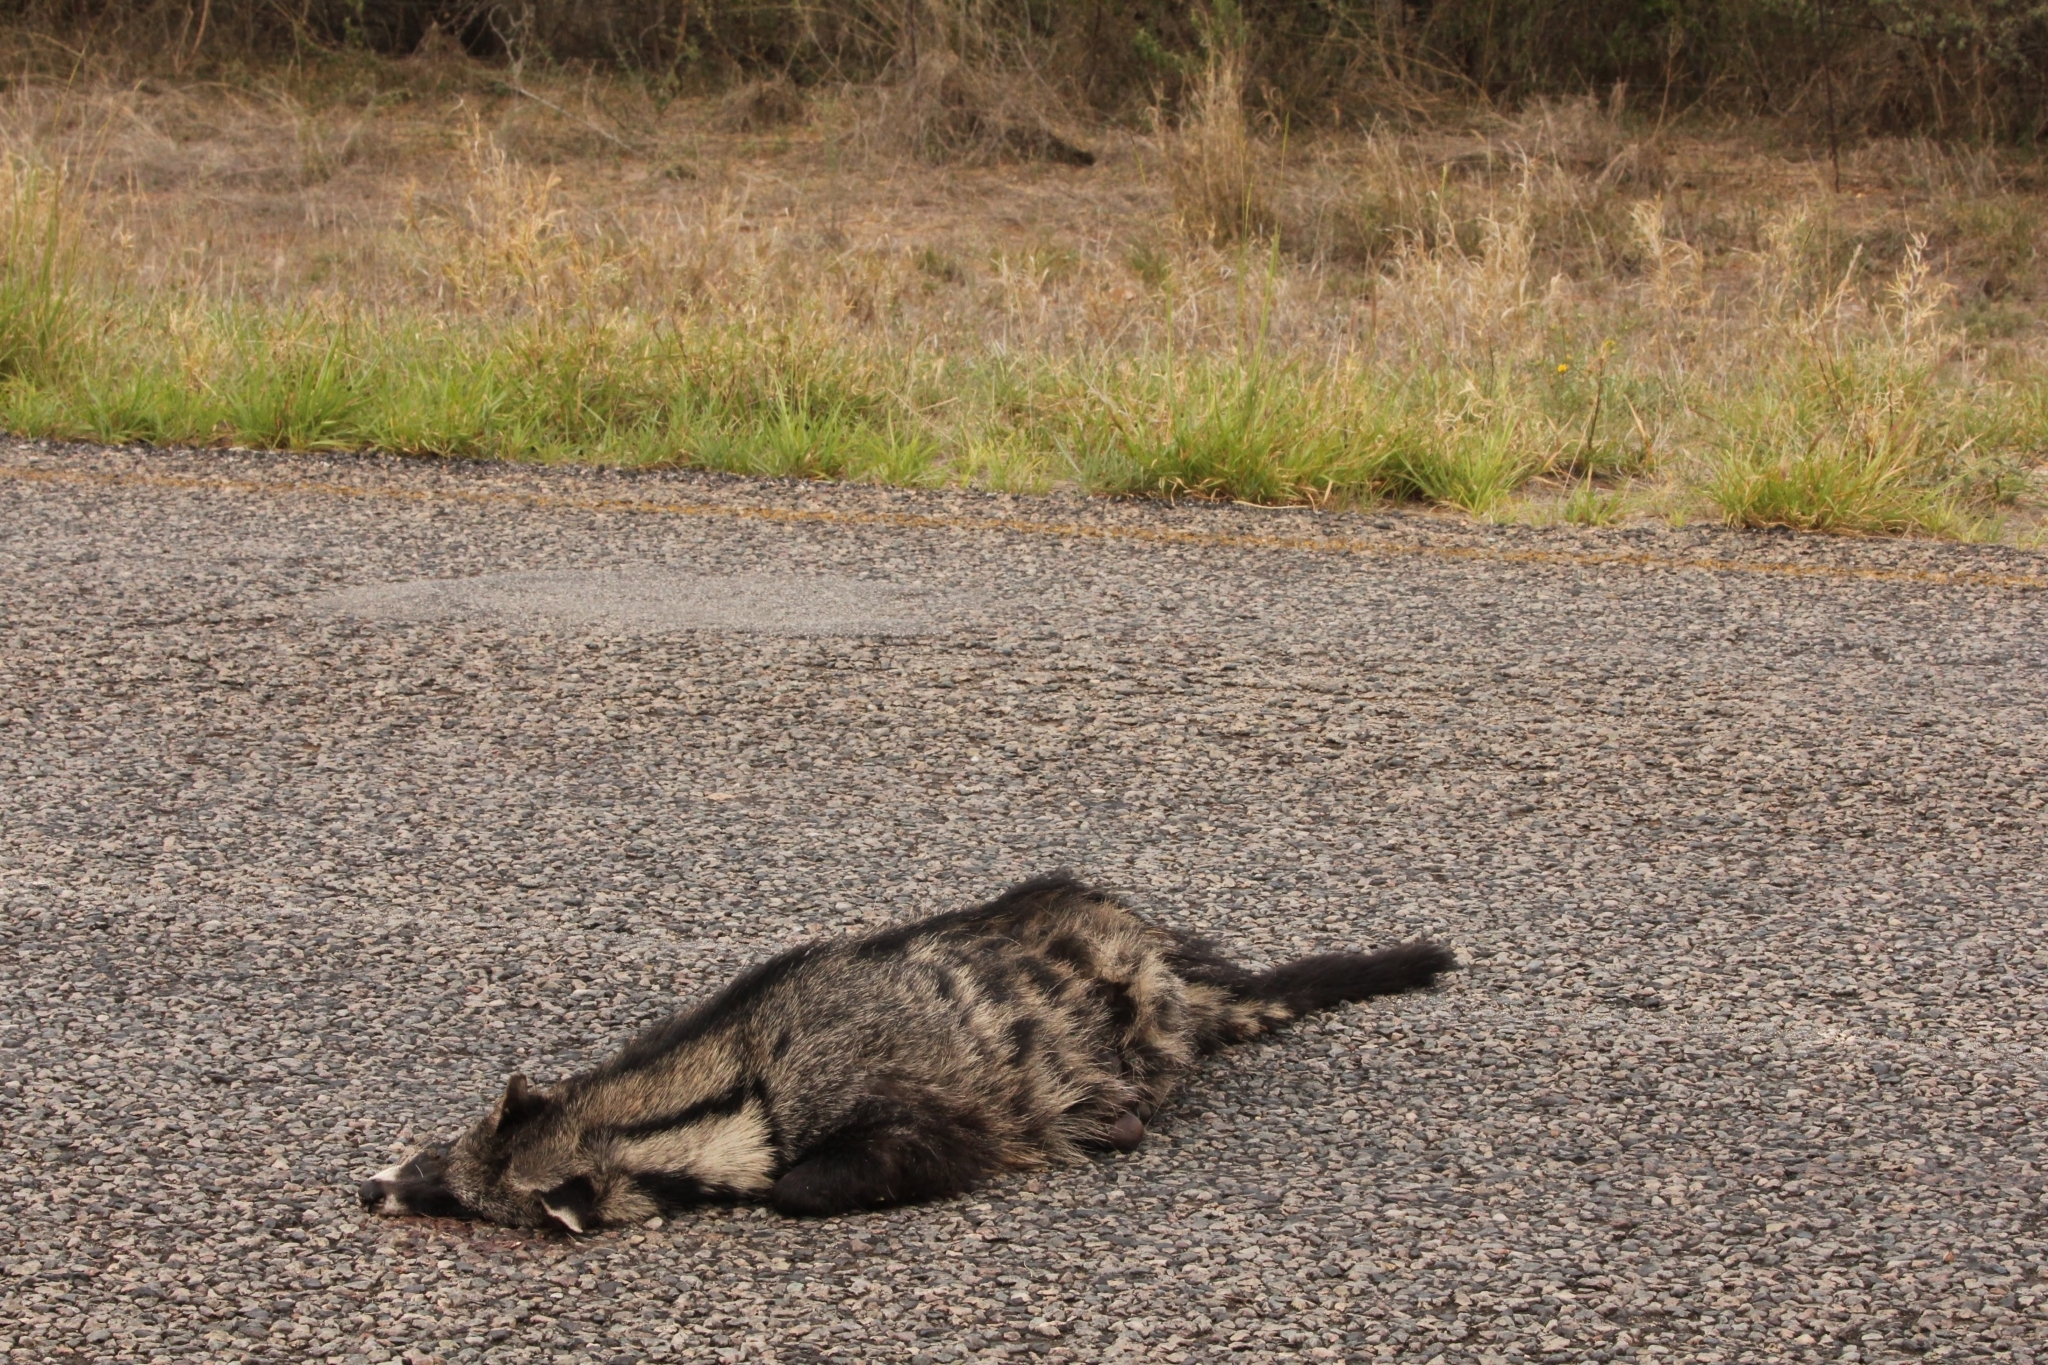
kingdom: Animalia
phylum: Chordata
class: Mammalia
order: Carnivora
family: Viverridae
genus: Civettictis
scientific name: Civettictis civetta
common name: African civet
